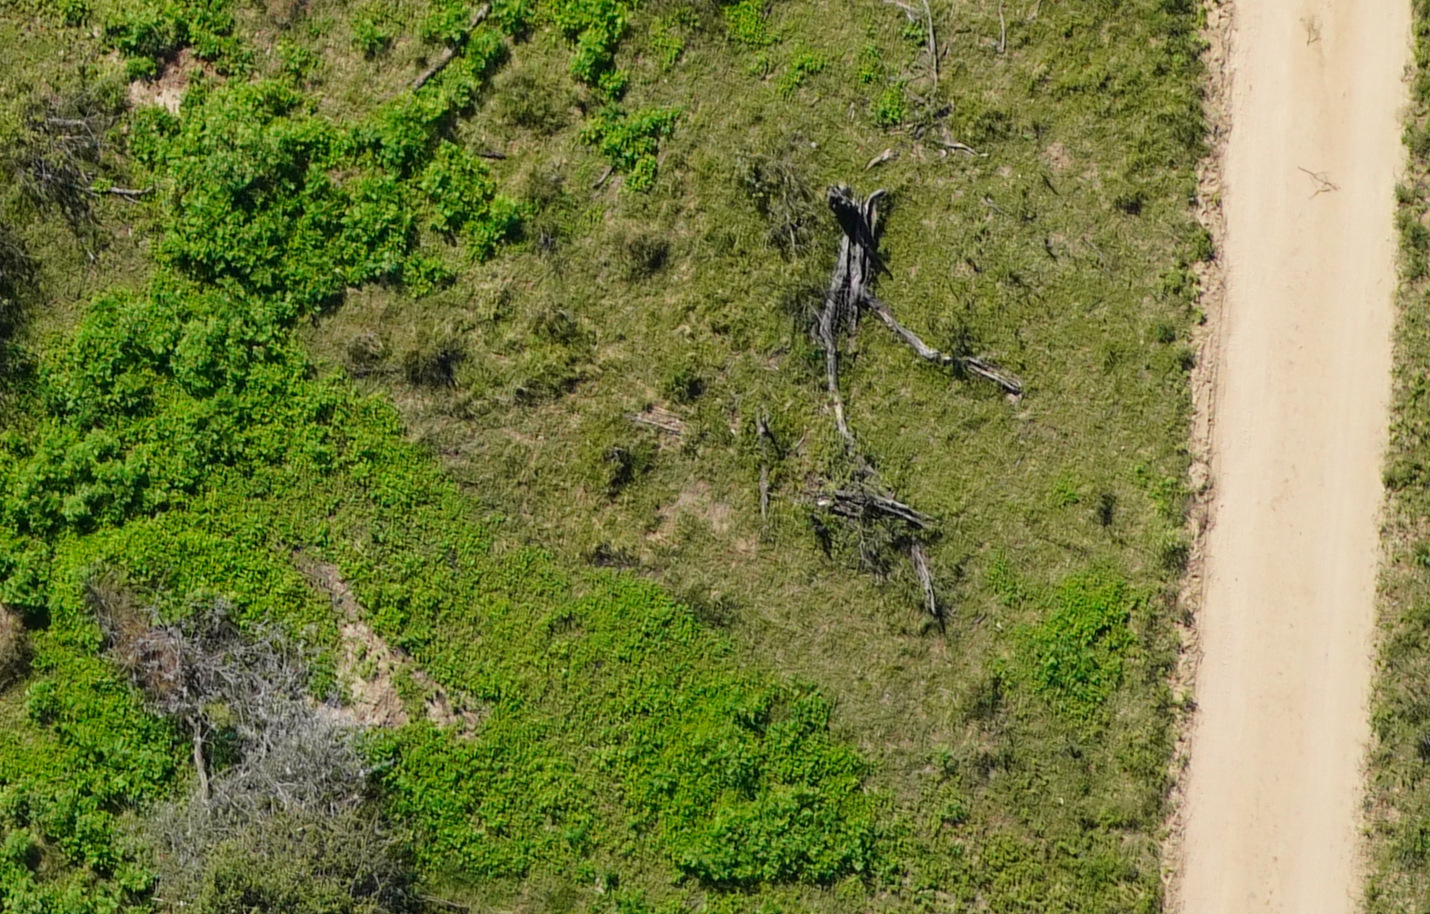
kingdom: Plantae
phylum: Tracheophyta
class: Magnoliopsida
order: Asterales
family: Asteraceae
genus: Parthenium
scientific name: Parthenium hysterophorus
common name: Santa maria feverfew
